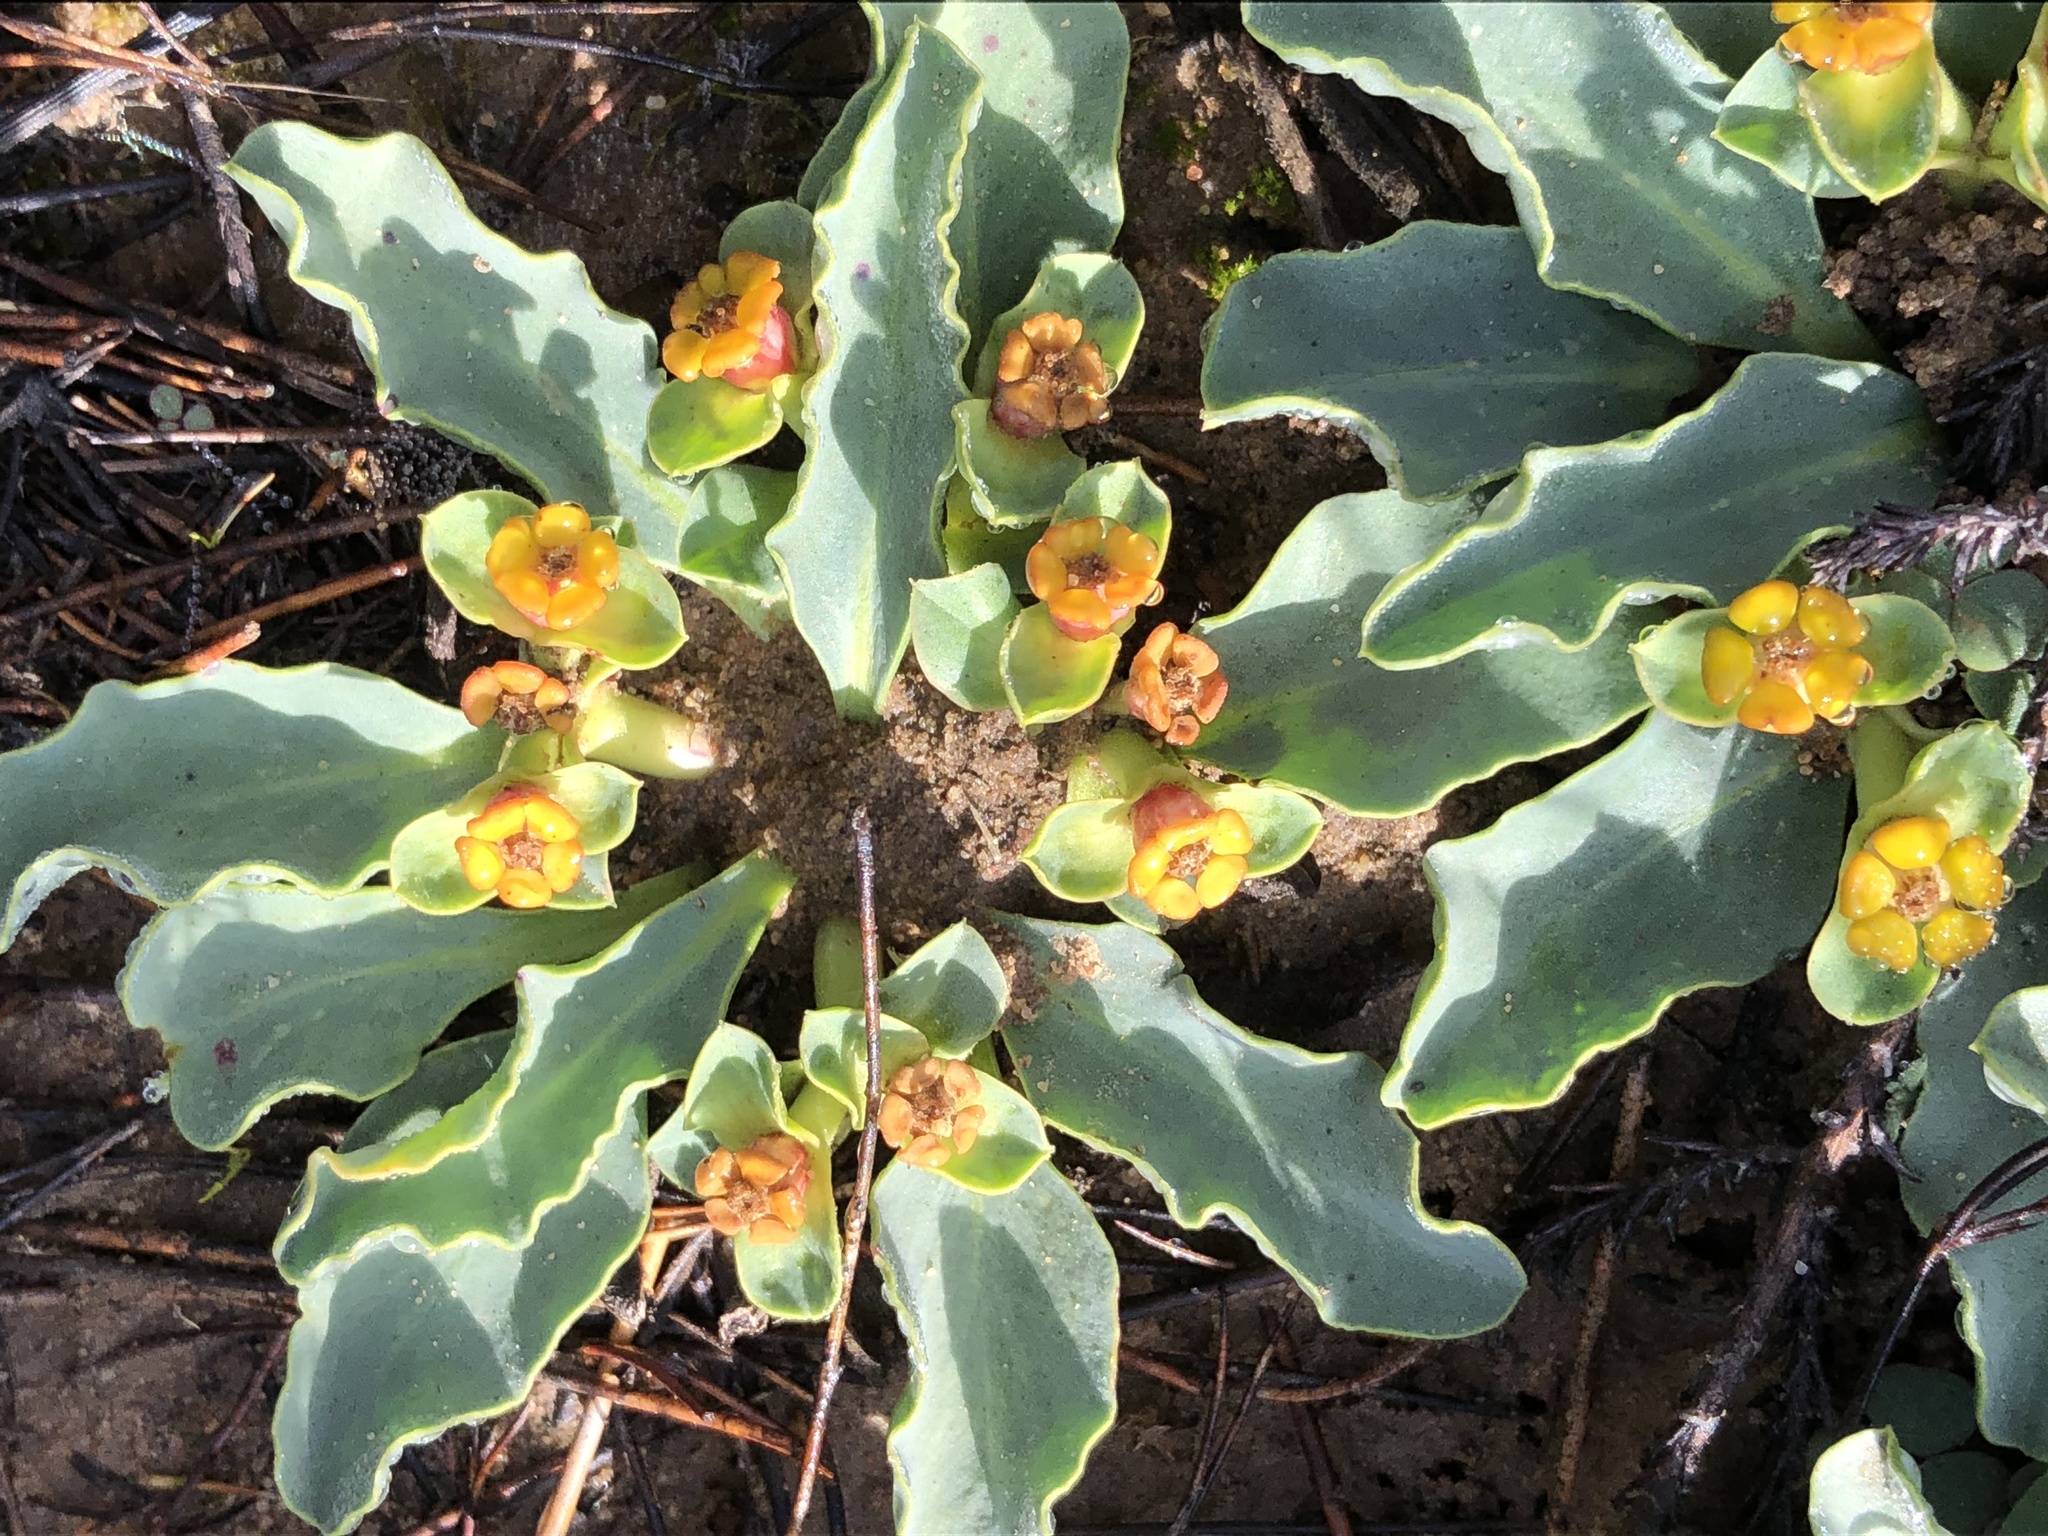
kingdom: Plantae
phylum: Tracheophyta
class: Magnoliopsida
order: Malpighiales
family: Euphorbiaceae
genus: Euphorbia
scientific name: Euphorbia tuberosa
